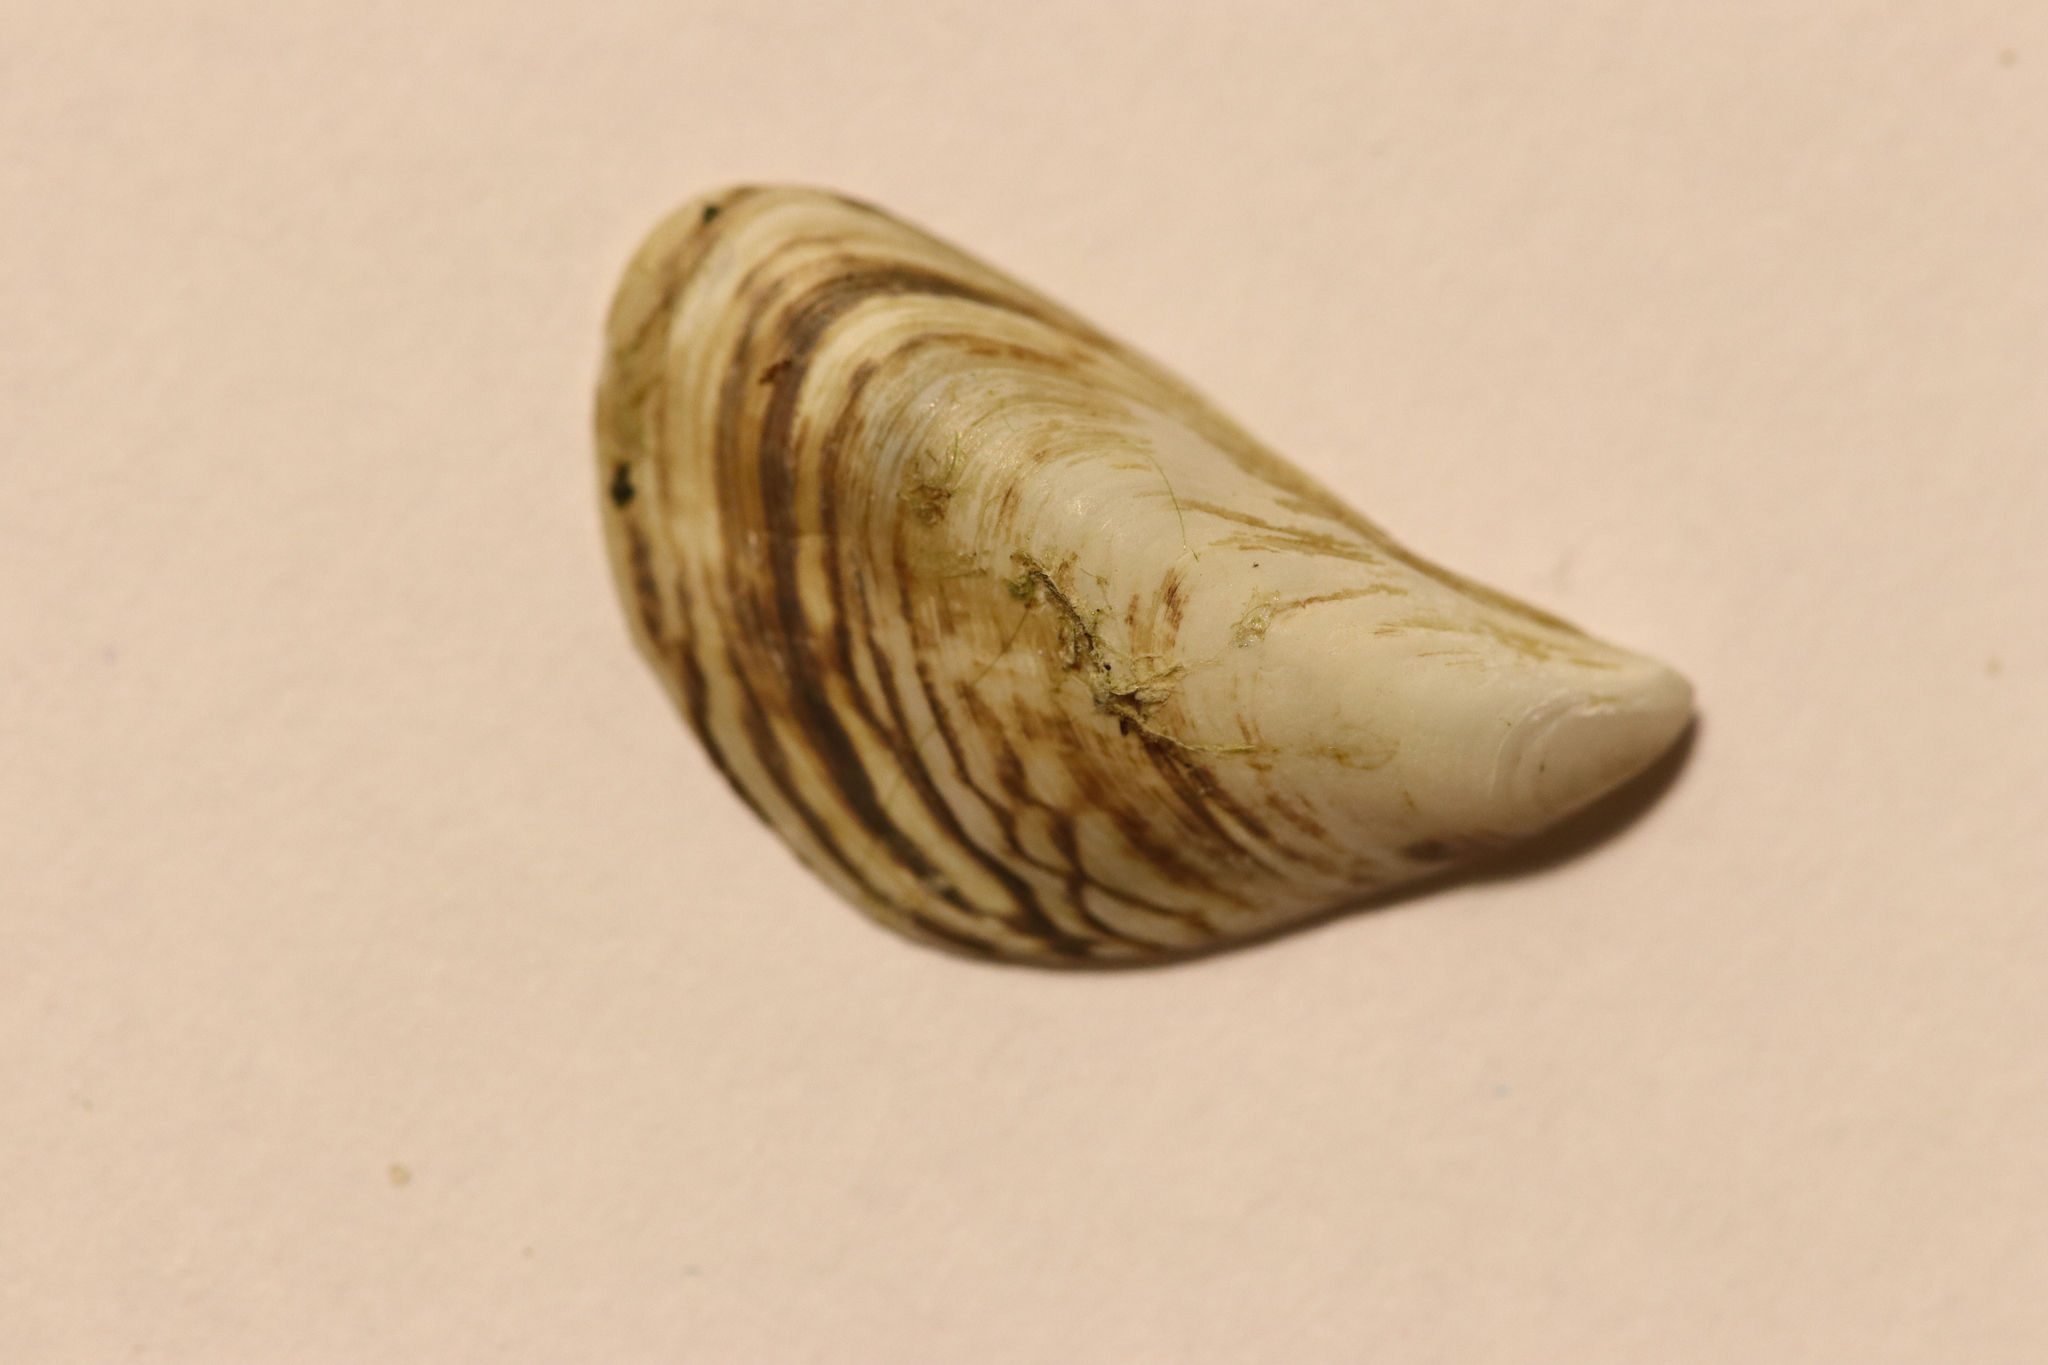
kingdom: Animalia
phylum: Mollusca
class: Bivalvia
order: Myida
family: Dreissenidae
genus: Dreissena
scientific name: Dreissena bugensis
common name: Quagga mussel
